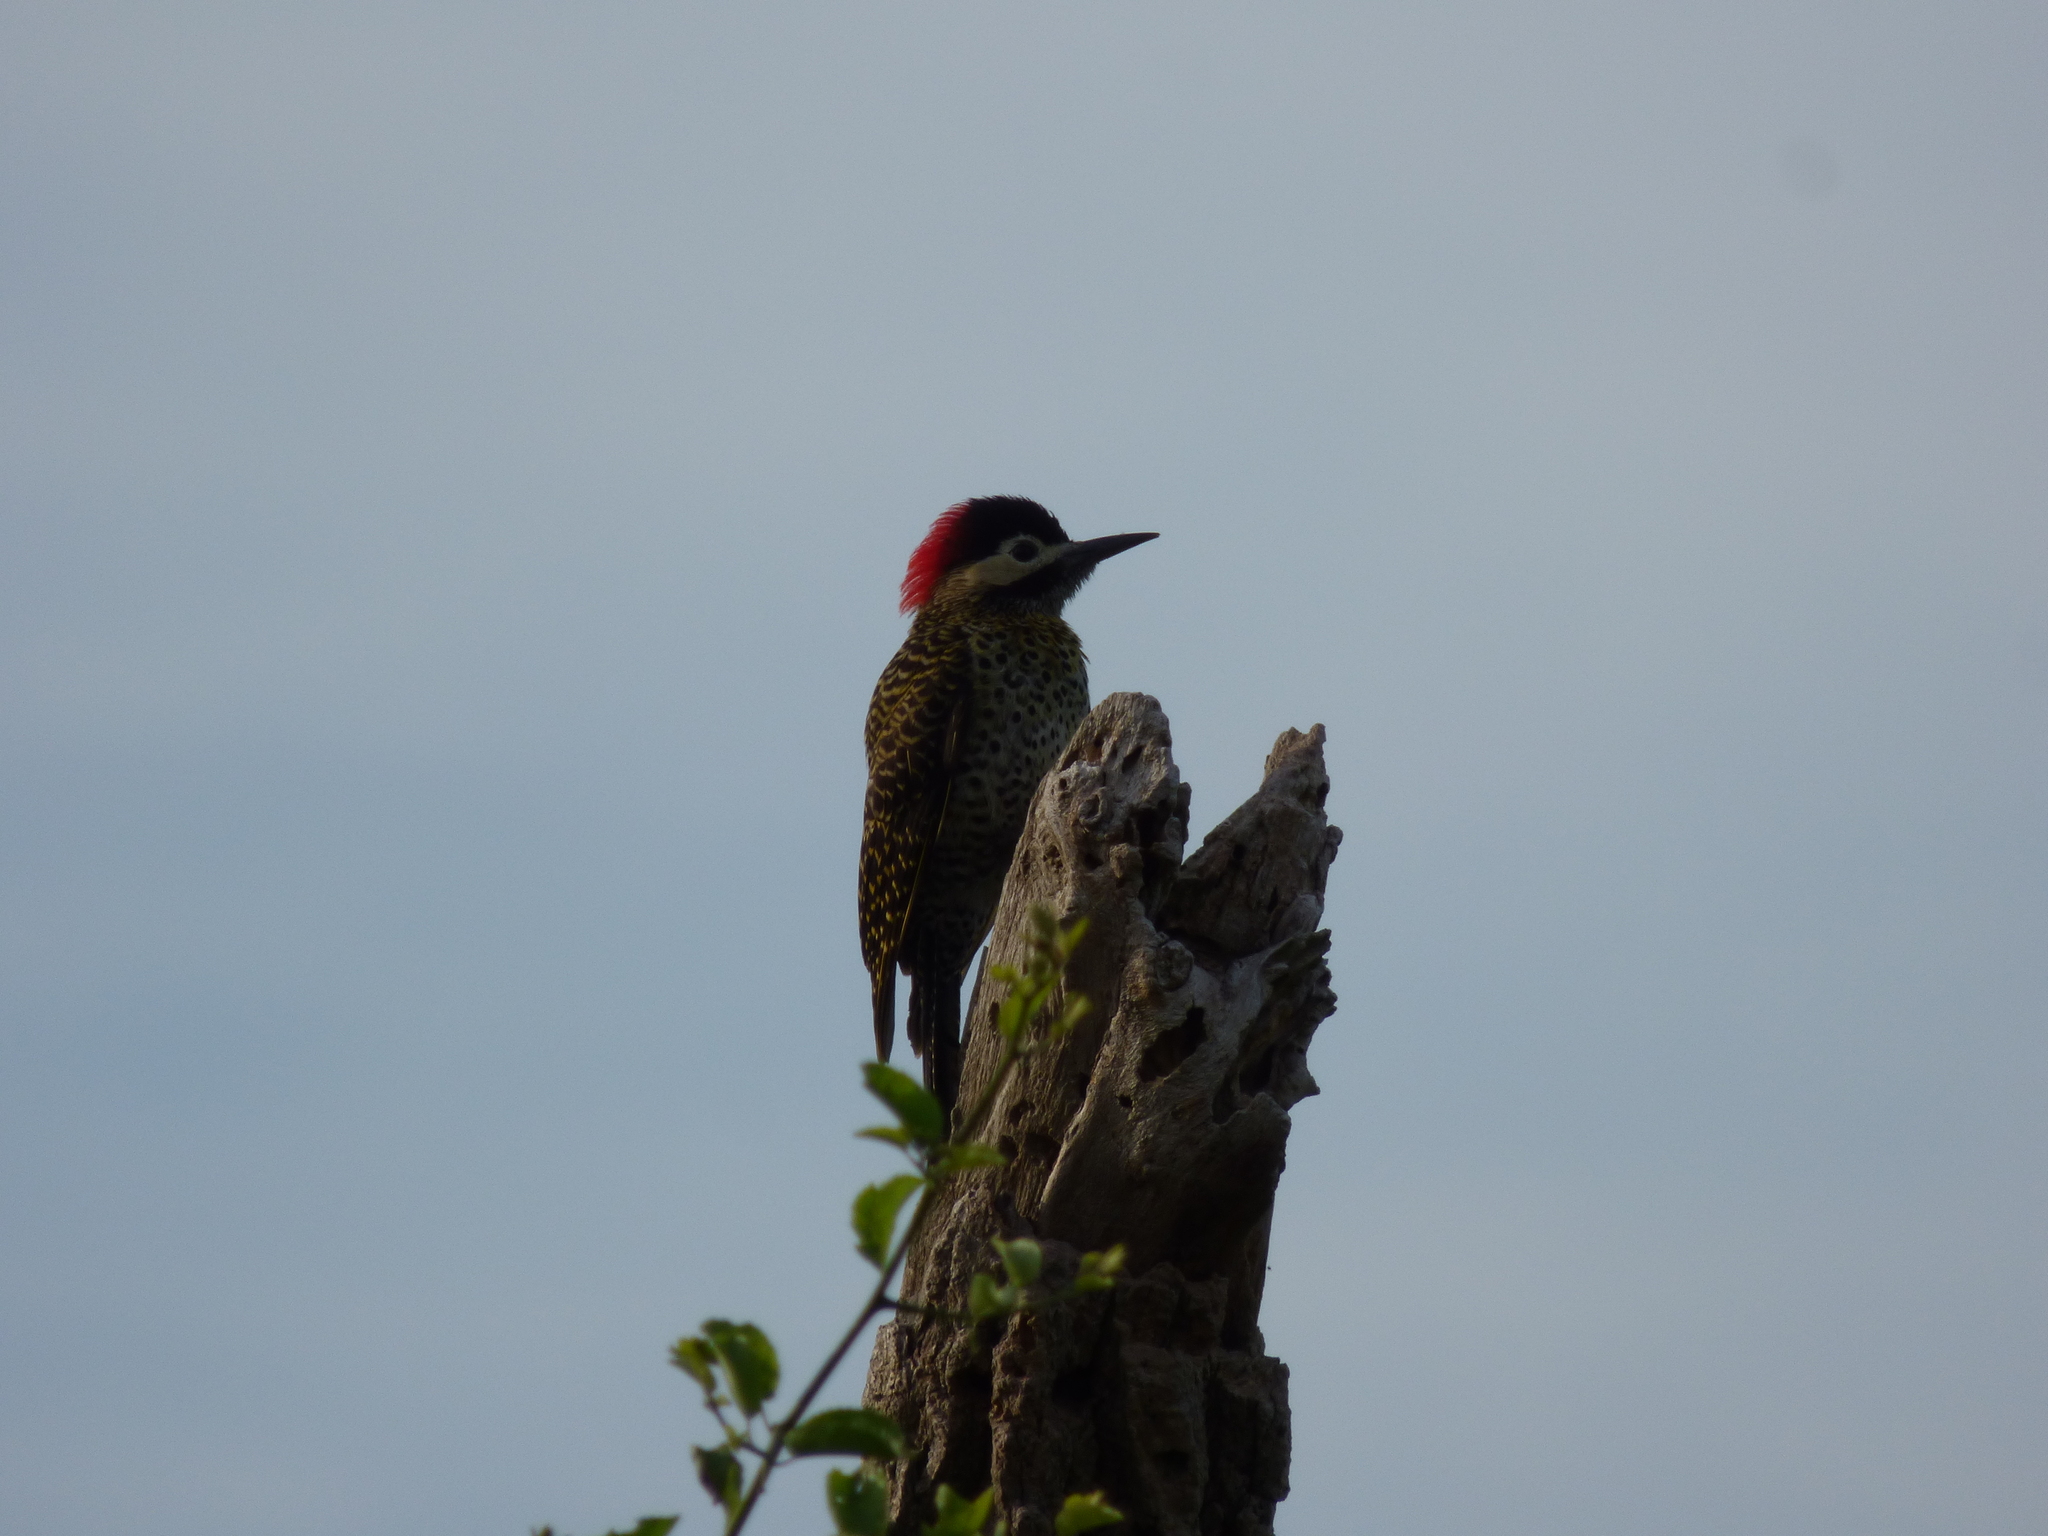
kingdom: Animalia
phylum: Chordata
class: Aves
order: Piciformes
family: Picidae
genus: Colaptes
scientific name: Colaptes melanochloros
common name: Green-barred woodpecker
